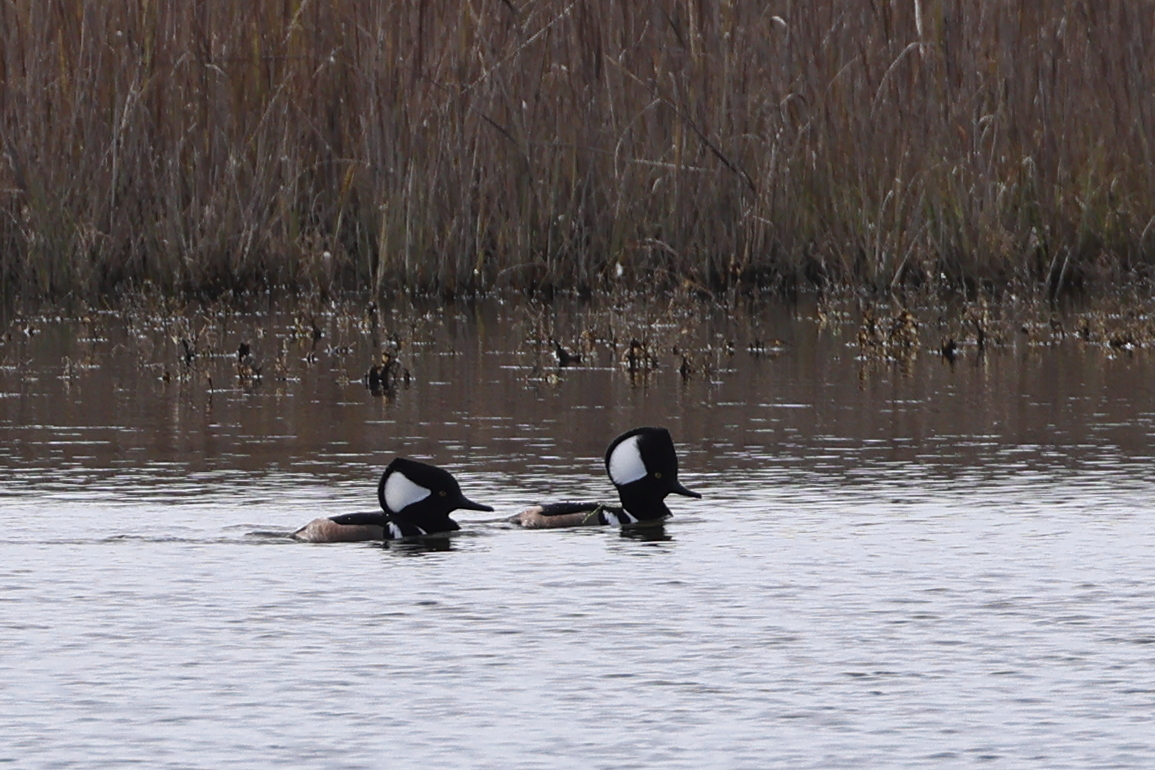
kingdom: Animalia
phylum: Chordata
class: Aves
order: Anseriformes
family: Anatidae
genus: Lophodytes
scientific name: Lophodytes cucullatus
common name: Hooded merganser
